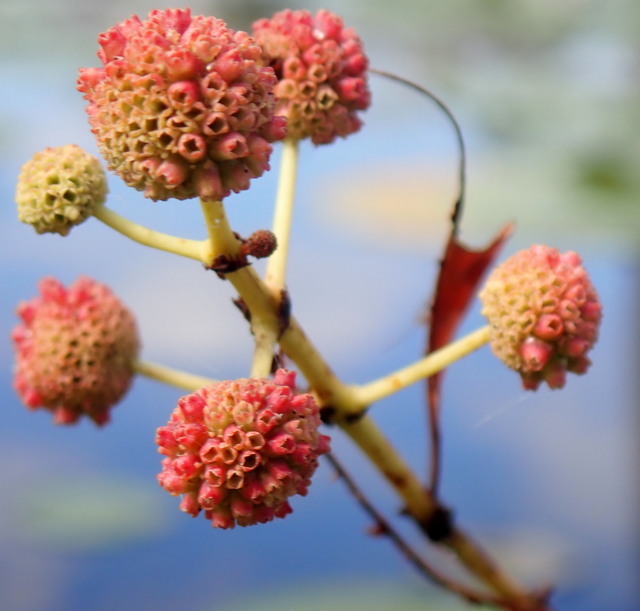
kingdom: Plantae
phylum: Tracheophyta
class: Magnoliopsida
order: Gentianales
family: Rubiaceae
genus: Cephalanthus
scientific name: Cephalanthus occidentalis
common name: Button-willow
